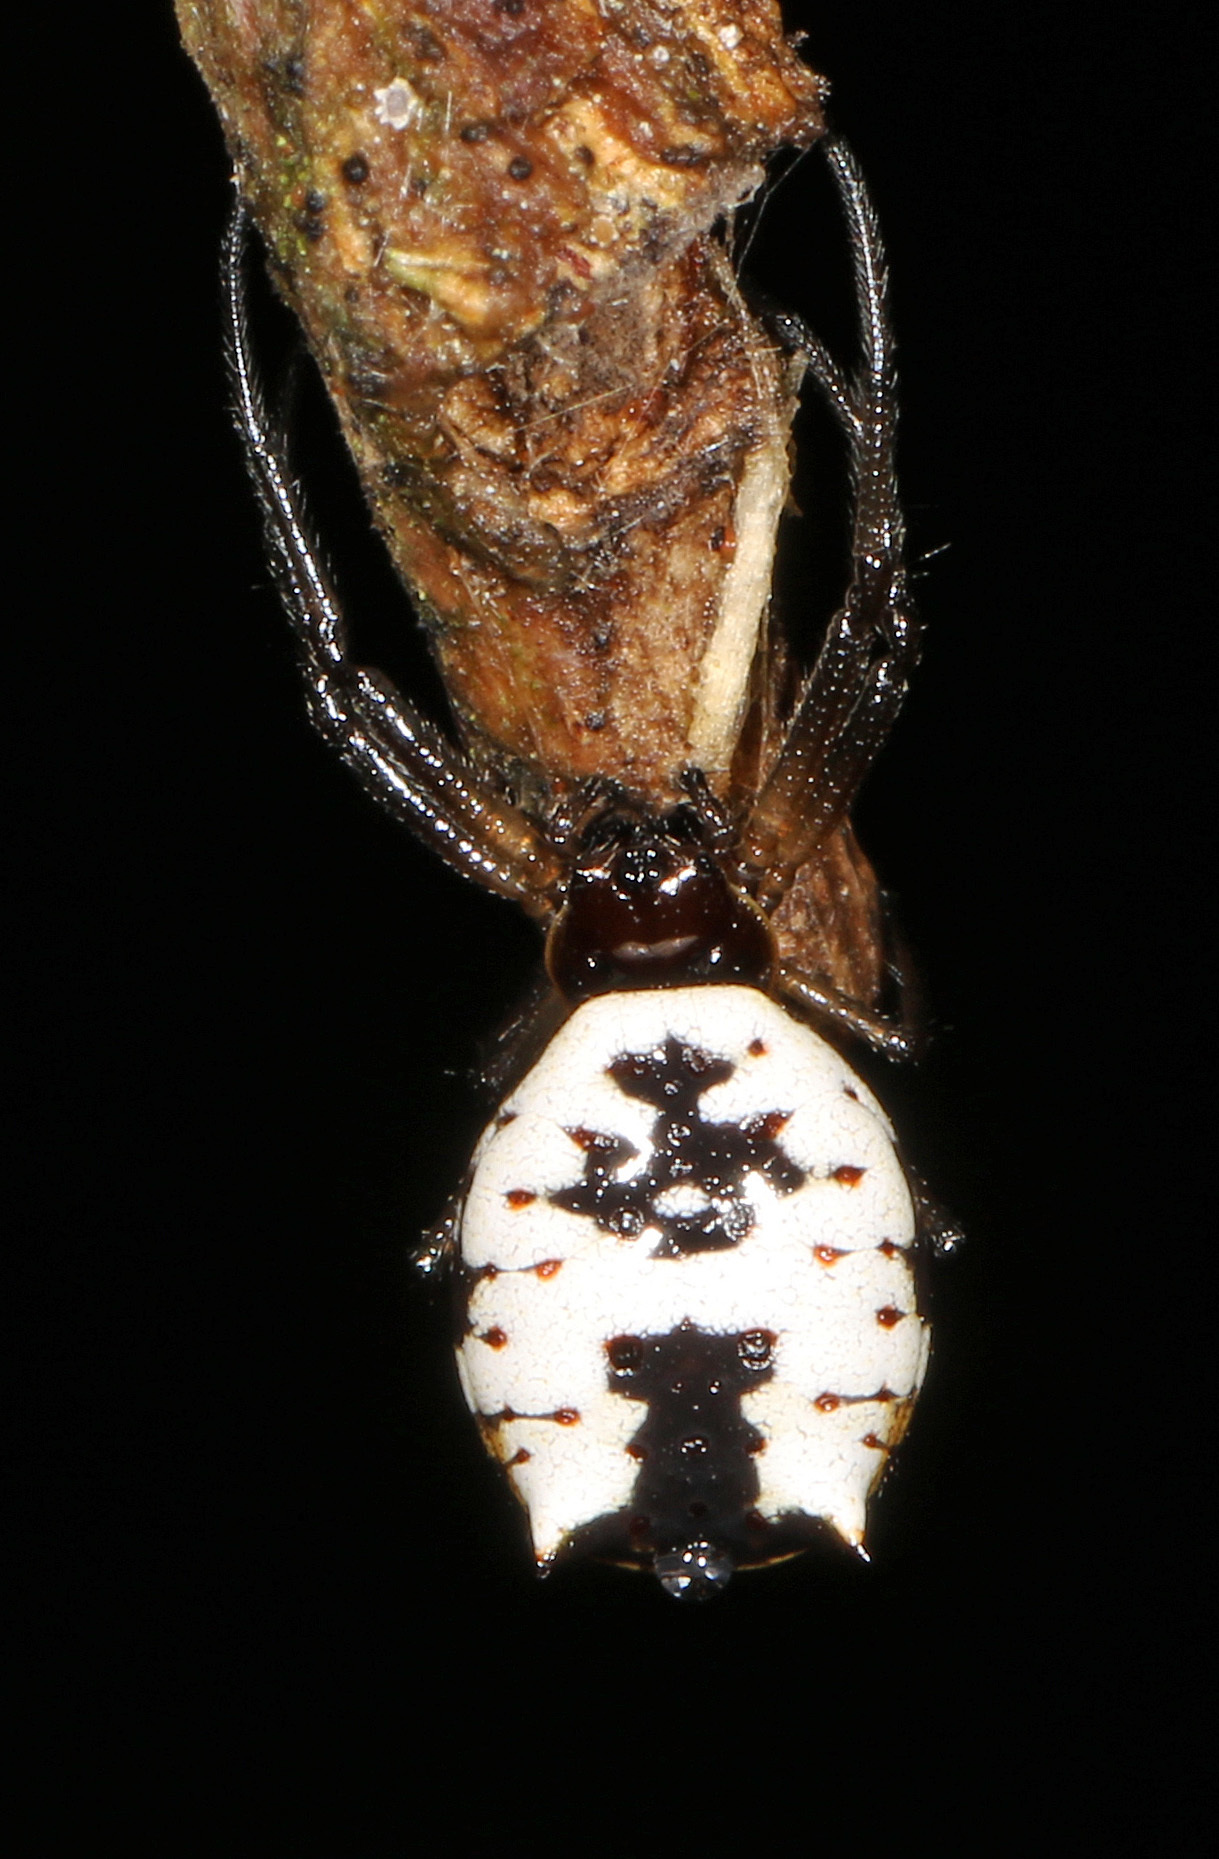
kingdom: Animalia
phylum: Arthropoda
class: Arachnida
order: Araneae
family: Araneidae
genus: Micrathena
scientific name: Micrathena mitrata
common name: Orb weavers
